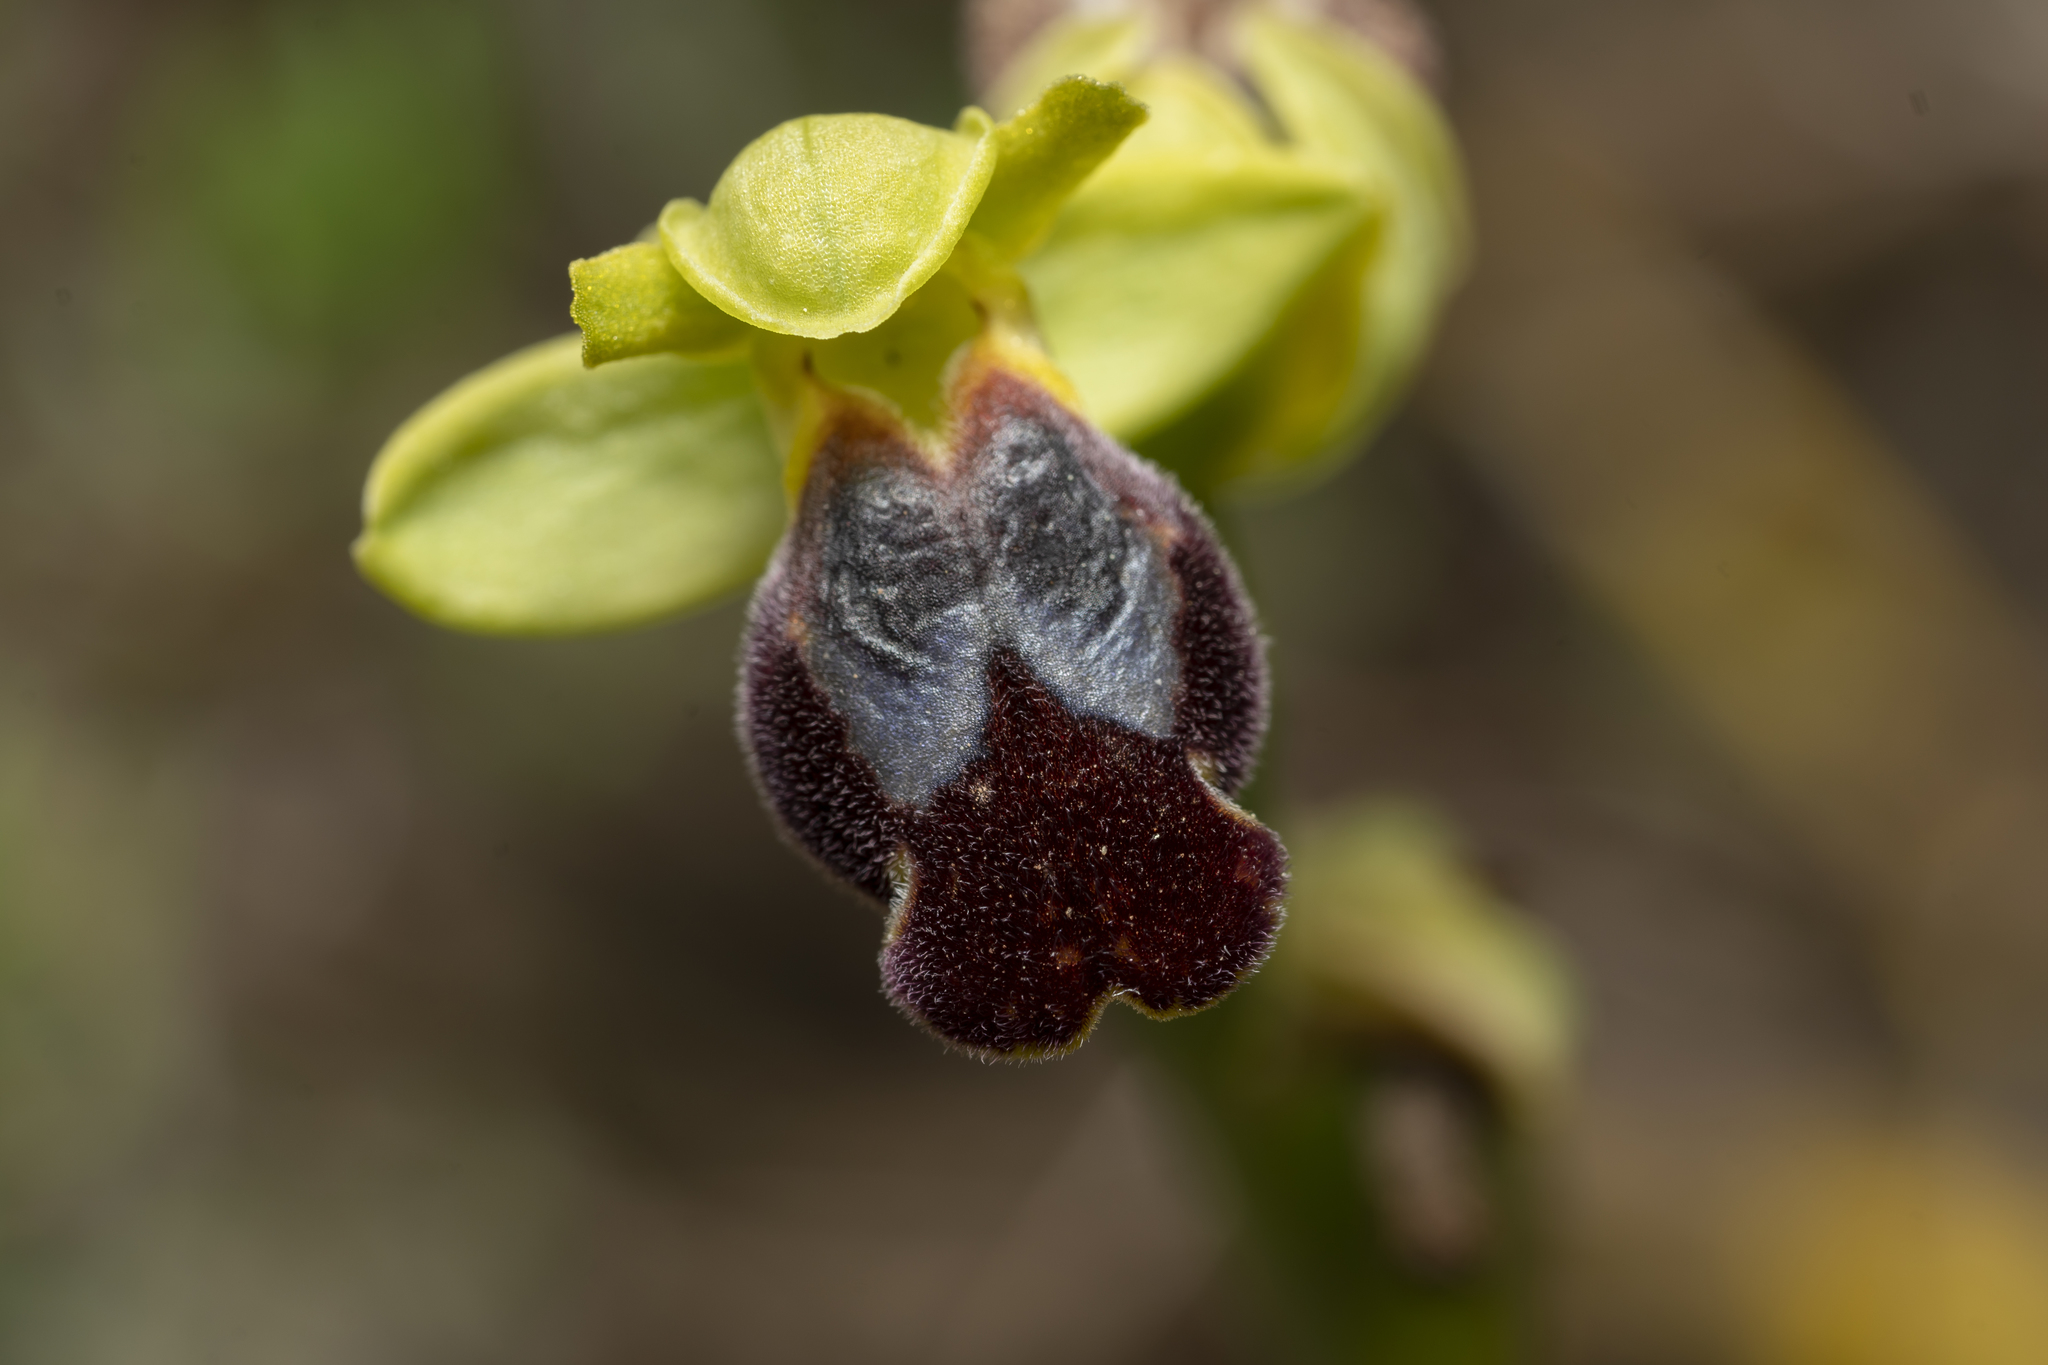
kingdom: Plantae
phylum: Tracheophyta
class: Liliopsida
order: Asparagales
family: Orchidaceae
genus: Ophrys
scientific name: Ophrys fusca
